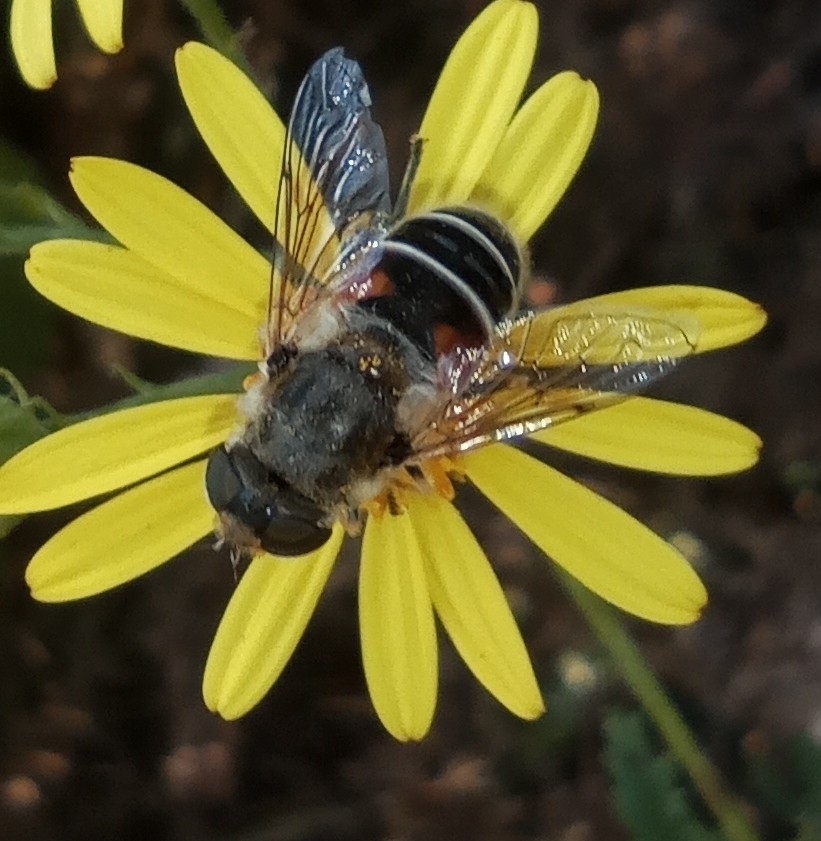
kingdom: Animalia
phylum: Arthropoda
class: Insecta
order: Diptera
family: Syrphidae
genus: Eristalis
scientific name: Eristalis arbustorum
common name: Hover fly
